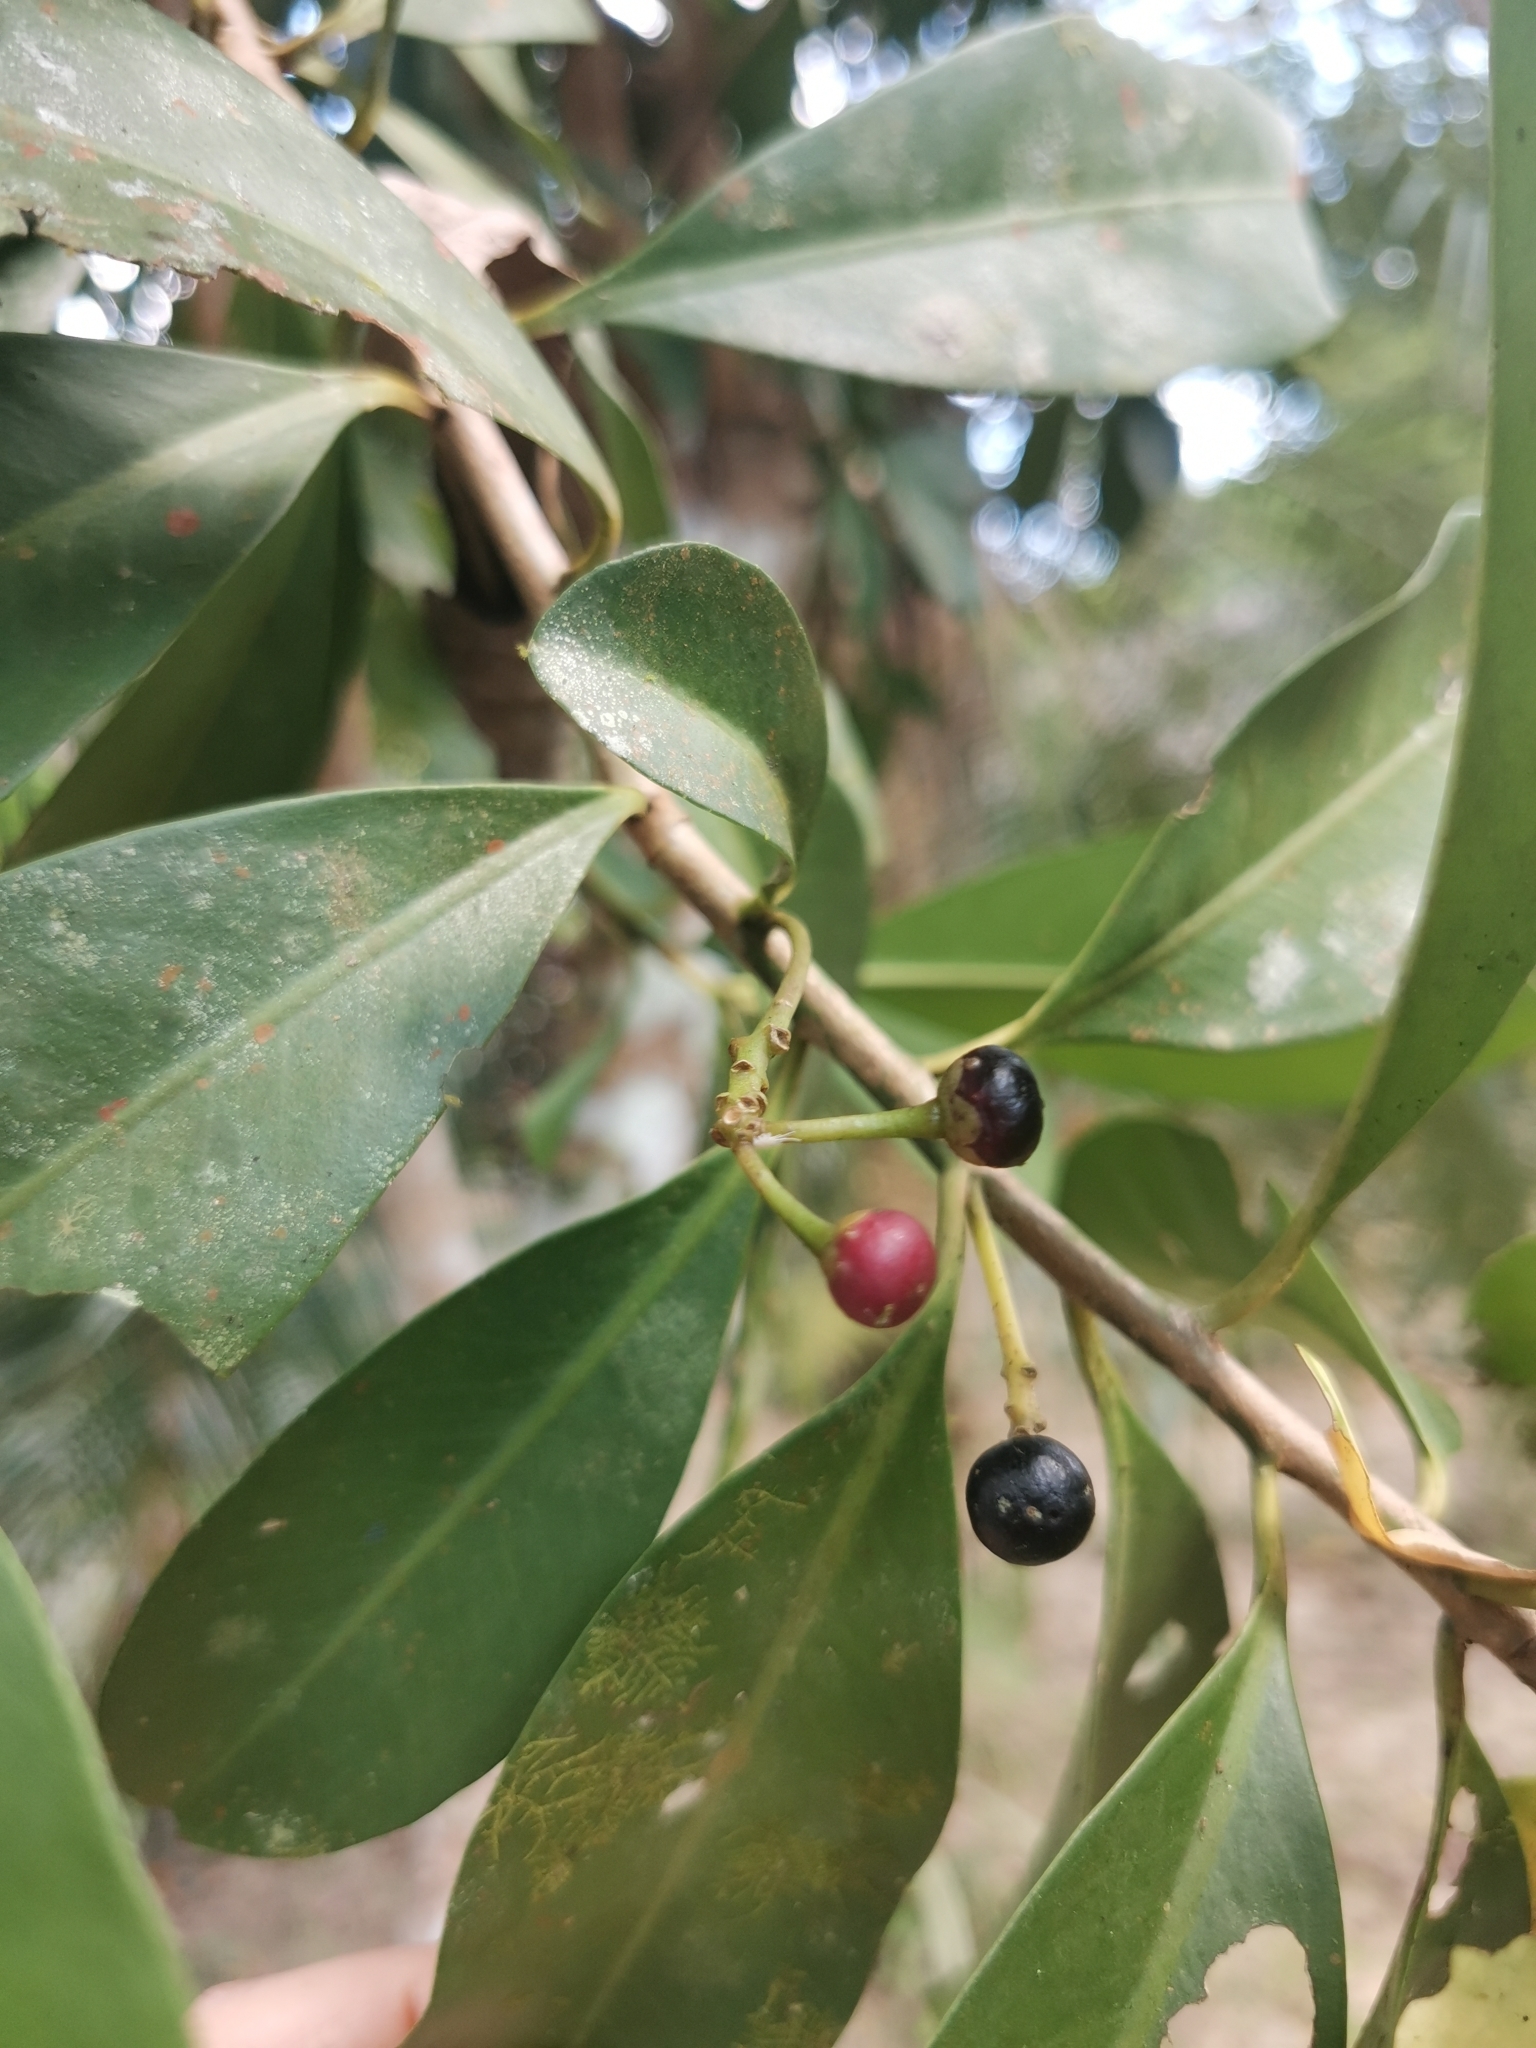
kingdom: Plantae
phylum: Tracheophyta
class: Magnoliopsida
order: Ericales
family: Primulaceae
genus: Ardisia
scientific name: Ardisia elliptica
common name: Shoebutton
